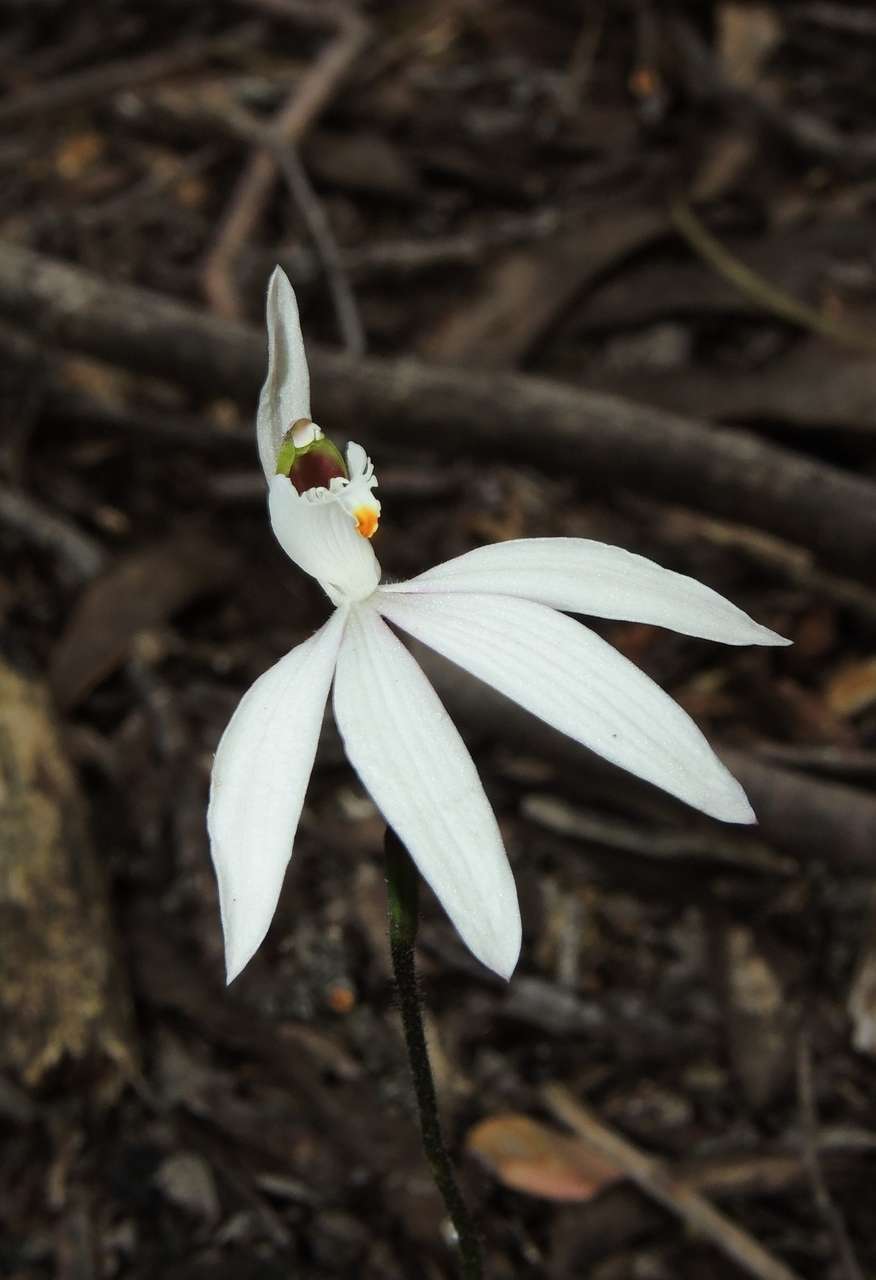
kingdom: Plantae
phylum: Tracheophyta
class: Liliopsida
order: Asparagales
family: Orchidaceae
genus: Caladenia
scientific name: Caladenia catenata
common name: White caladenia
